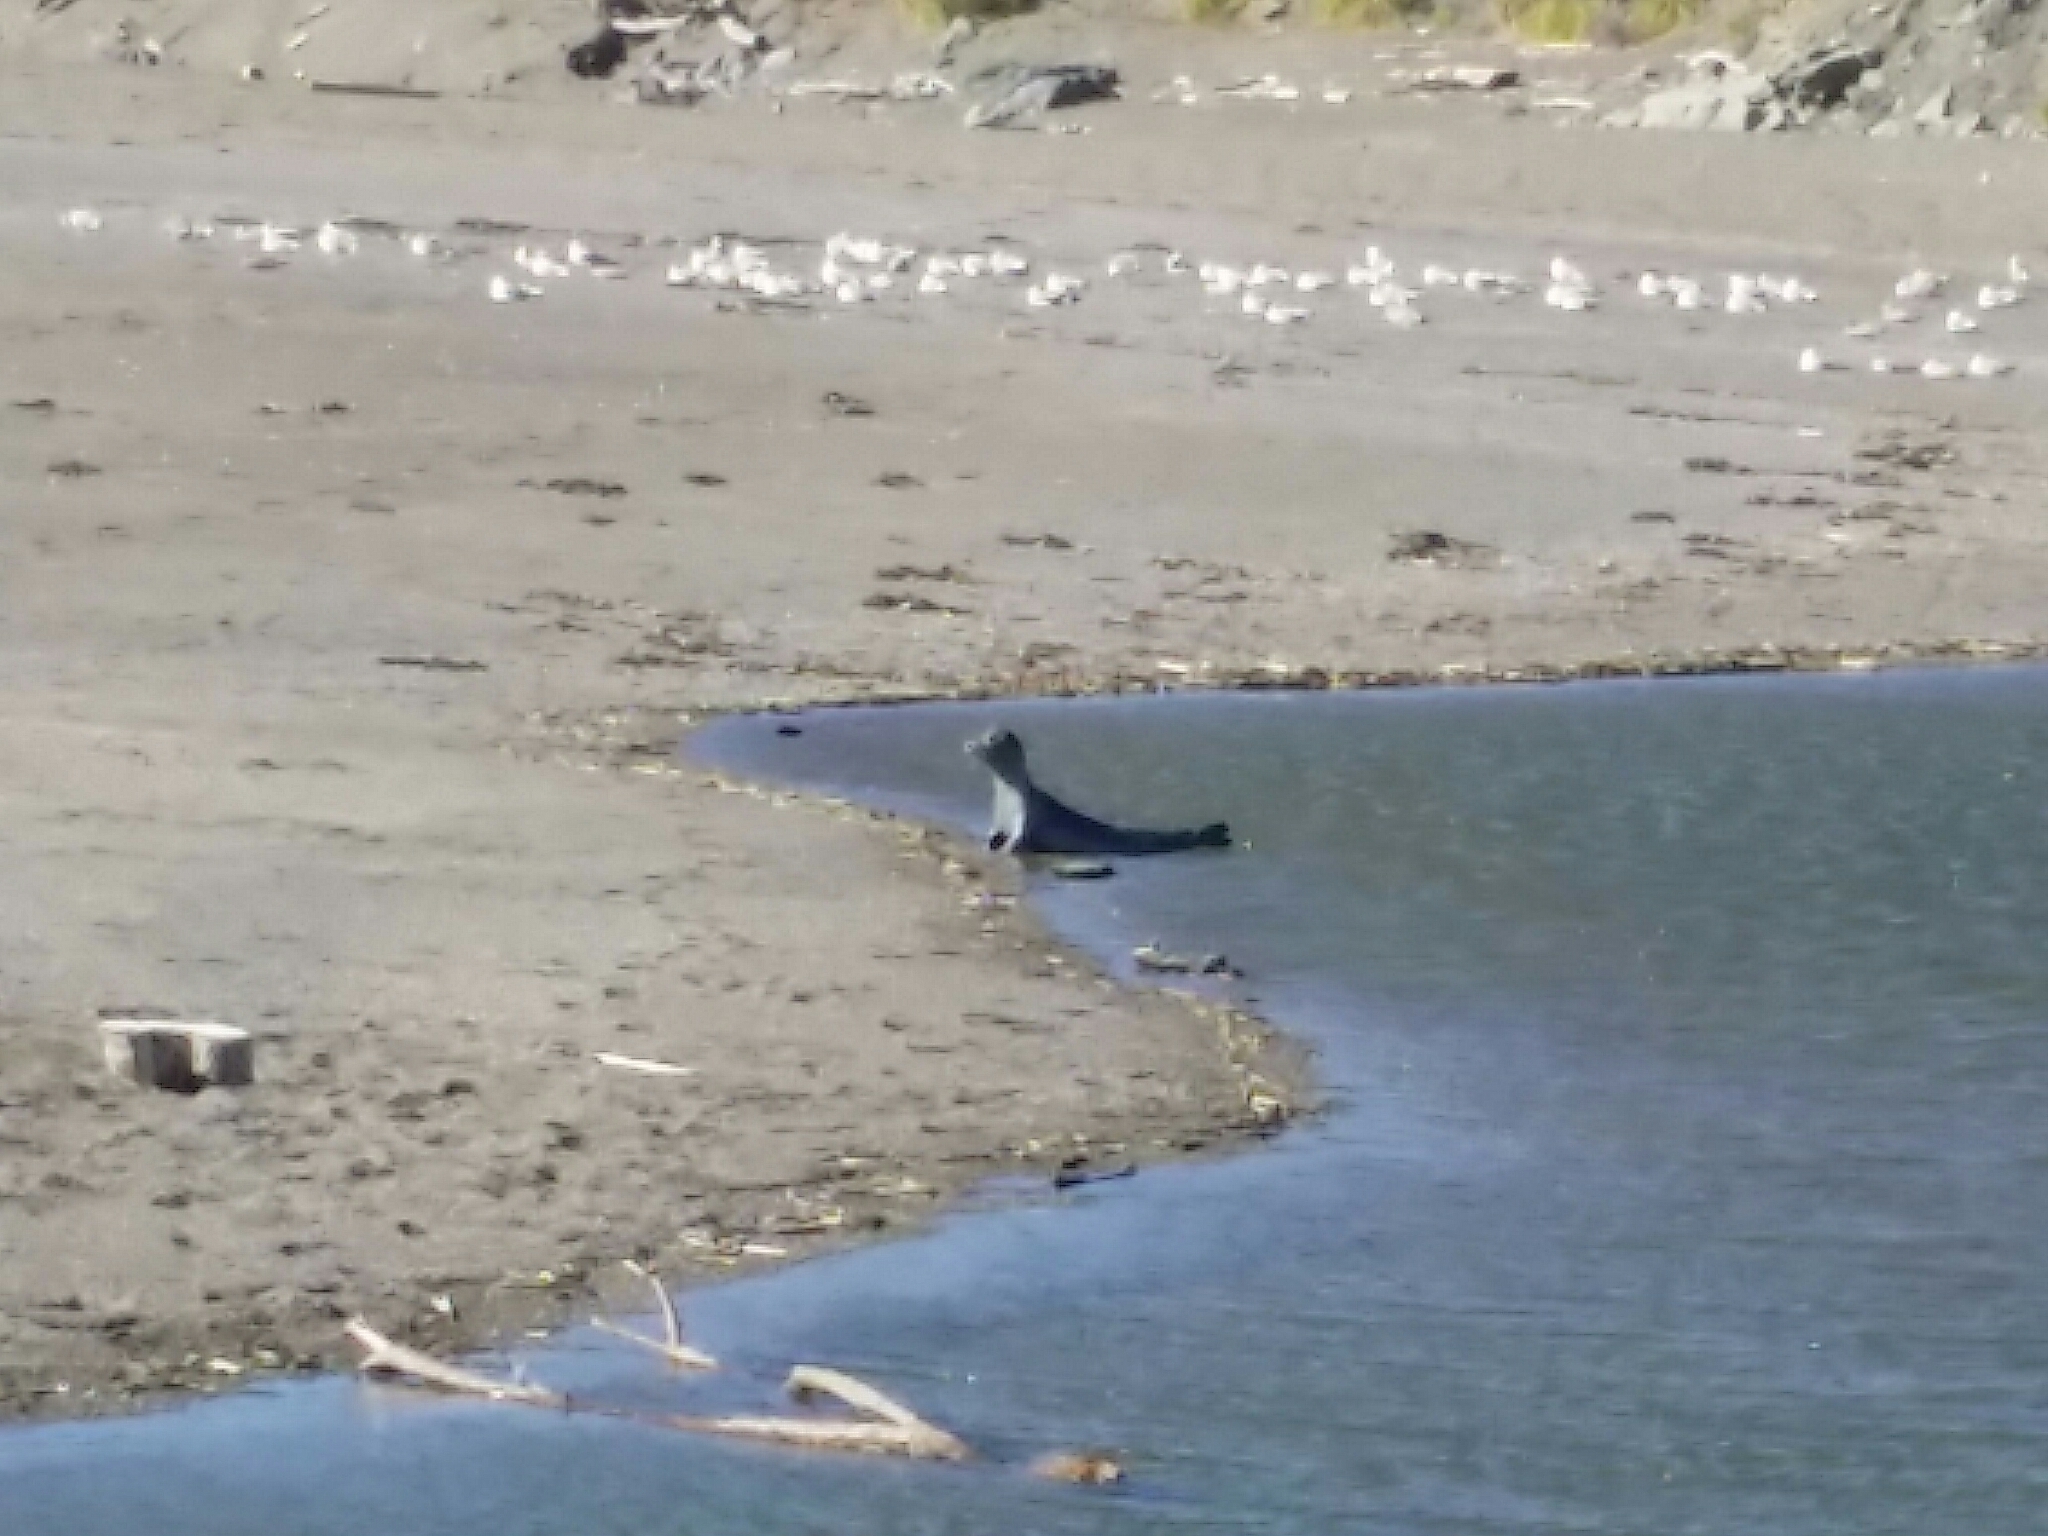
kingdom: Animalia
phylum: Chordata
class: Mammalia
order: Carnivora
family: Phocidae
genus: Phoca
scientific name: Phoca vitulina
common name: Harbor seal
